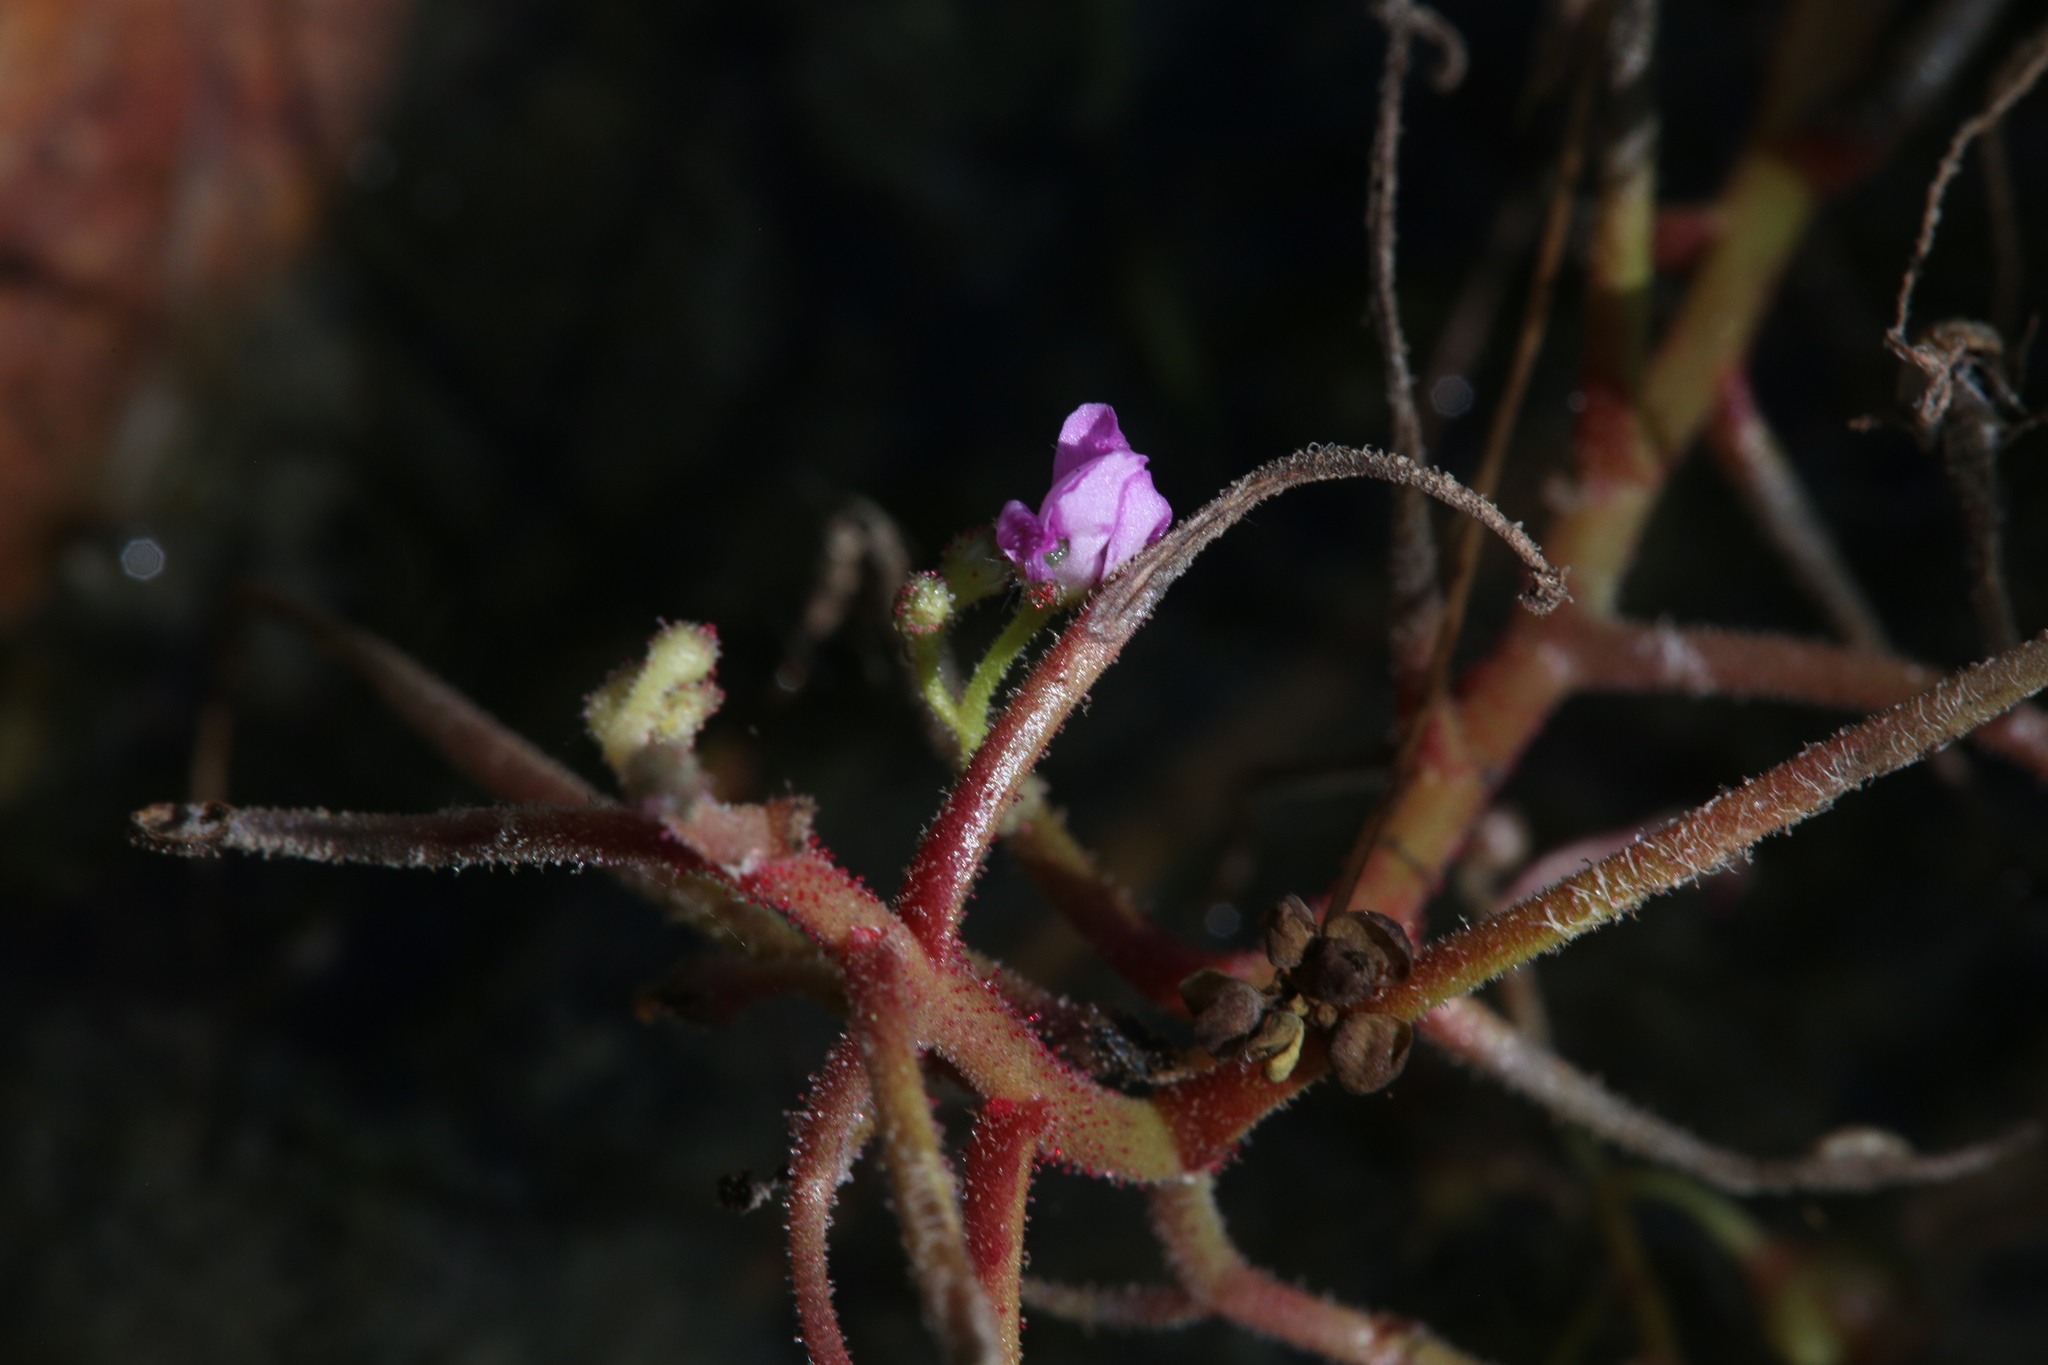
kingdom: Plantae
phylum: Tracheophyta
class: Magnoliopsida
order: Caryophyllales
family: Droseraceae
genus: Drosera
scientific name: Drosera indica
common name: Indian sundew
